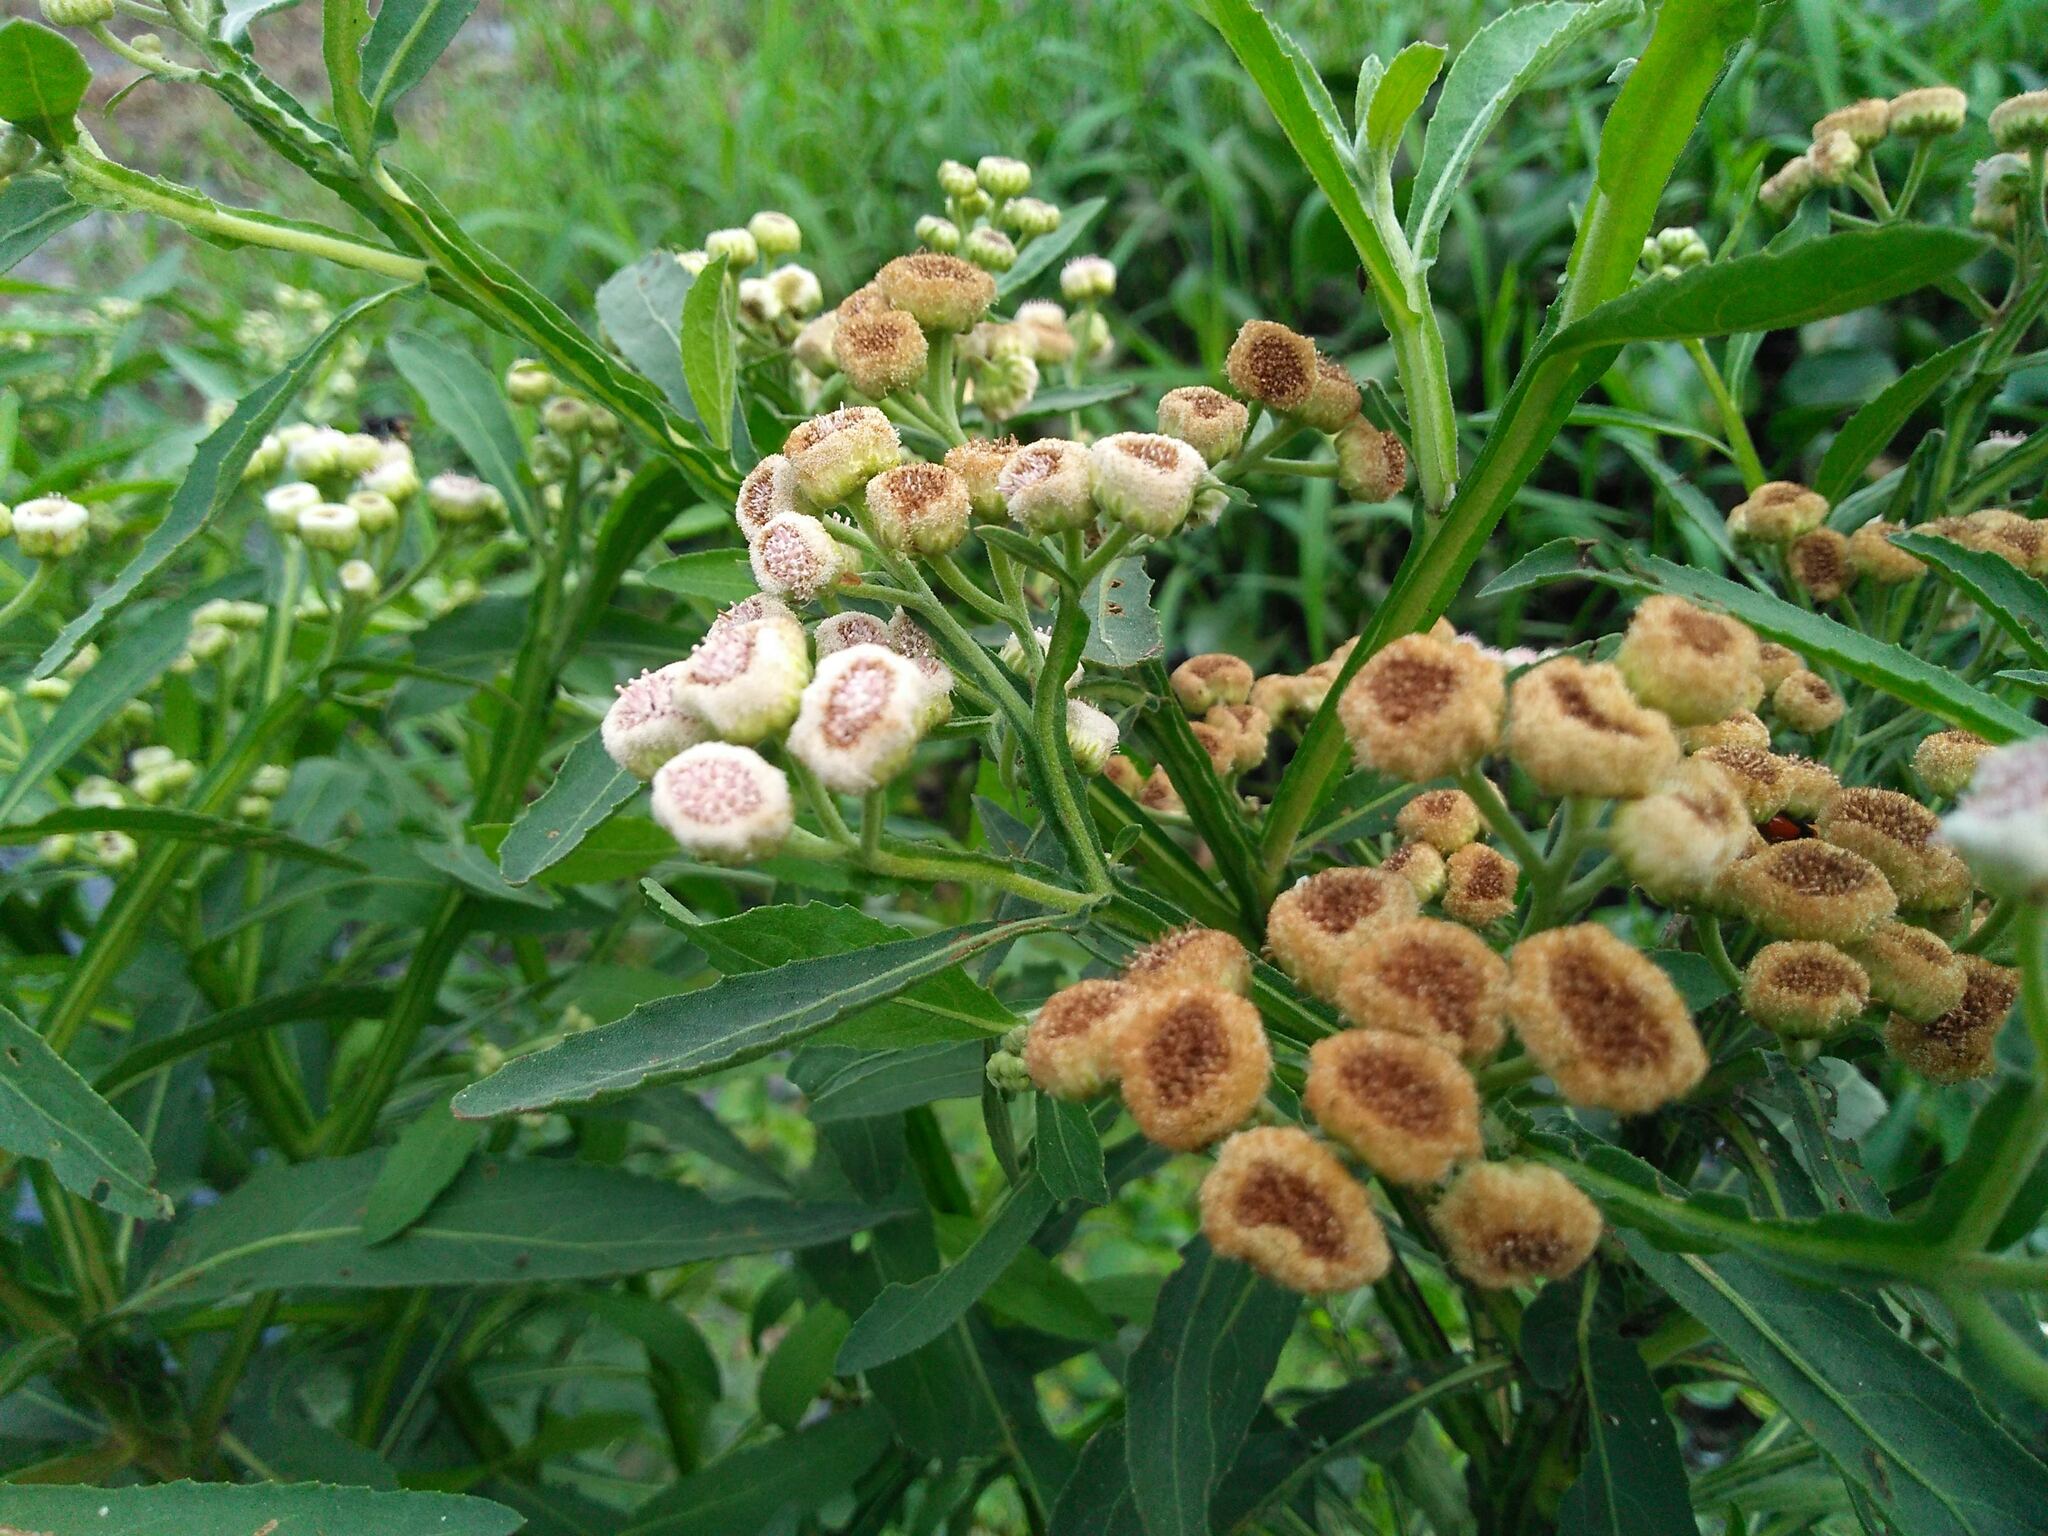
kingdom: Plantae
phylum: Tracheophyta
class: Magnoliopsida
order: Asterales
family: Asteraceae
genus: Pluchea
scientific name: Pluchea sagittalis
